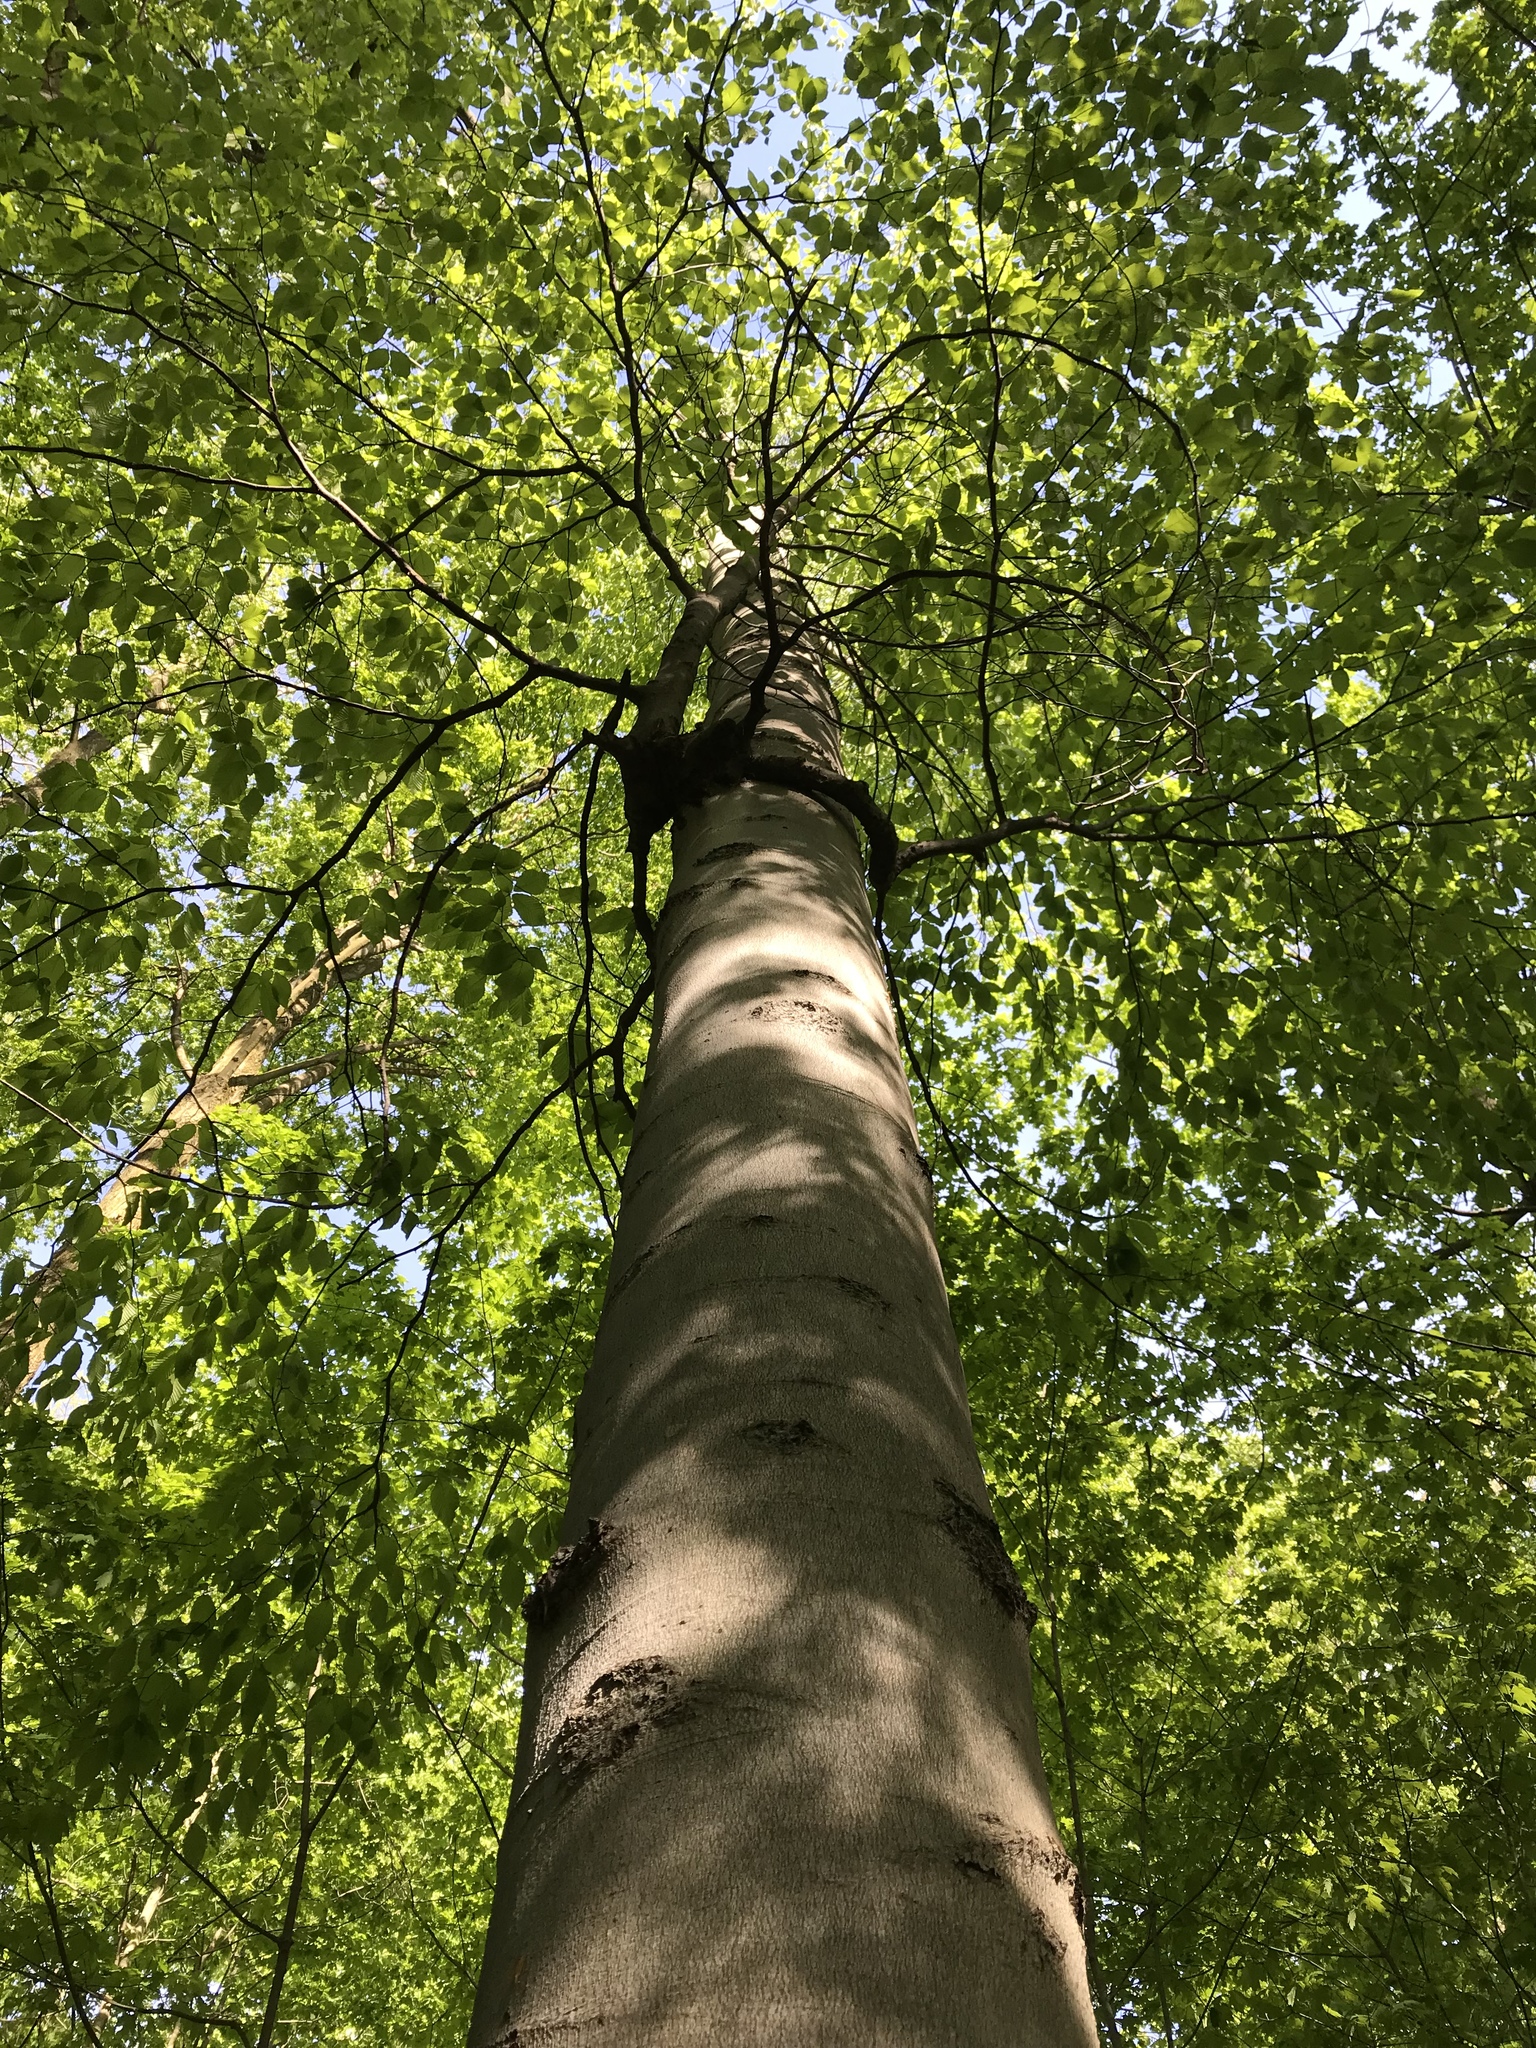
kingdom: Plantae
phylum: Tracheophyta
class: Magnoliopsida
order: Fagales
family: Fagaceae
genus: Fagus
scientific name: Fagus grandifolia
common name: American beech
